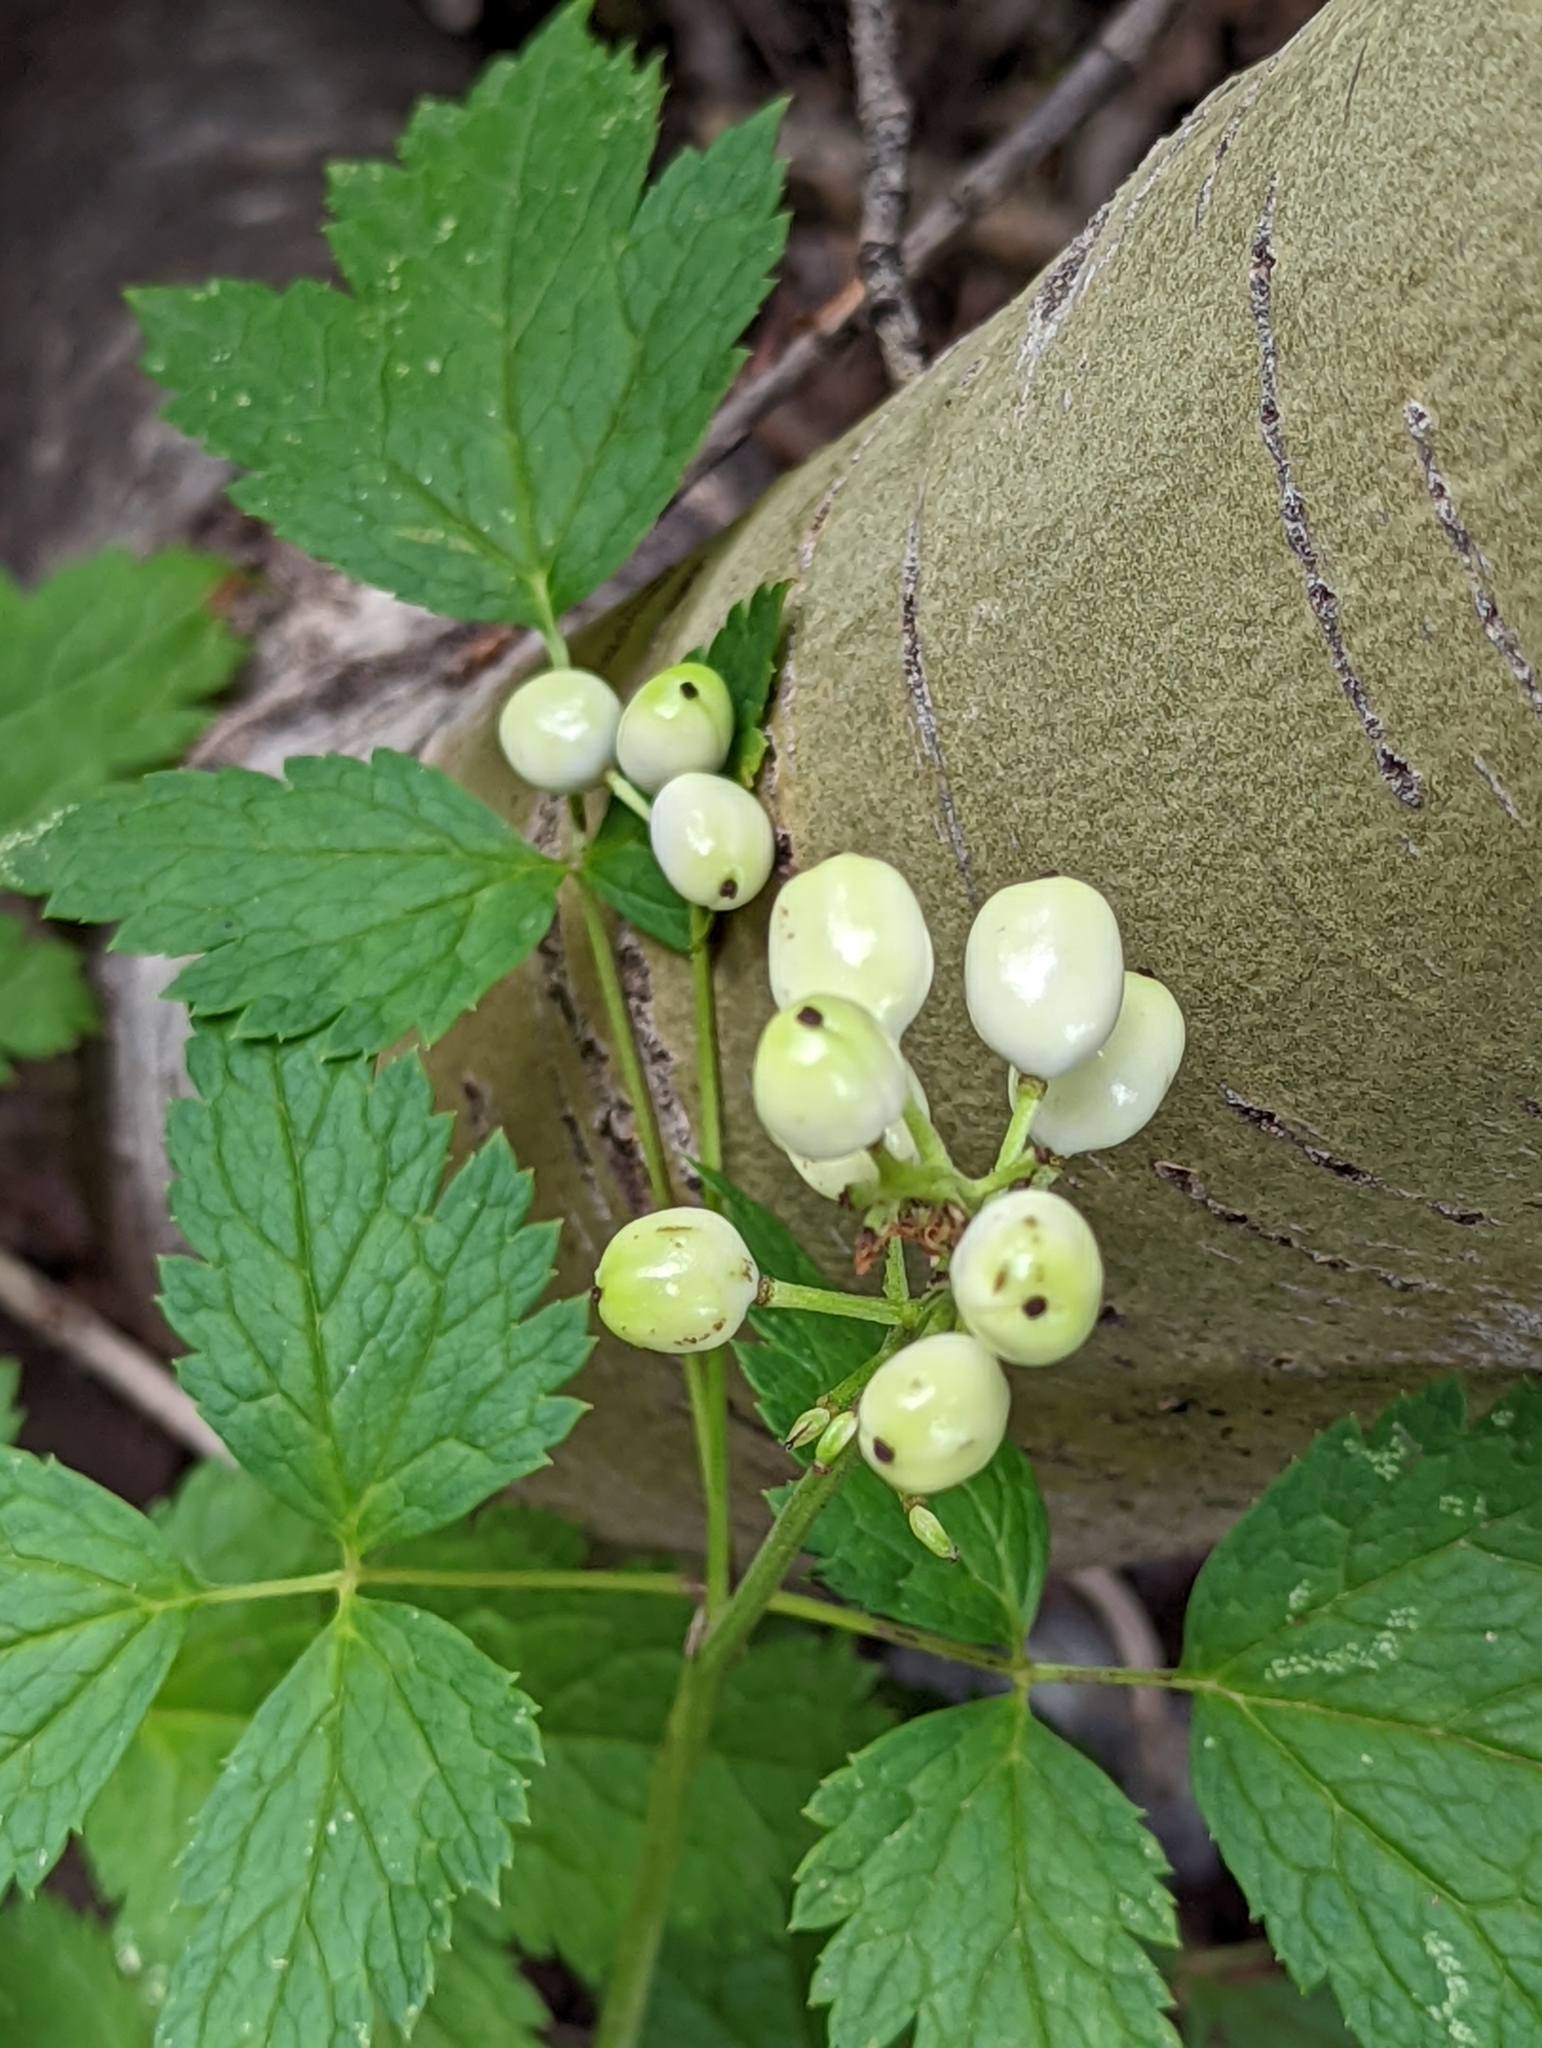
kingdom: Plantae
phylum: Tracheophyta
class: Magnoliopsida
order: Ranunculales
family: Ranunculaceae
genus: Actaea
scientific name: Actaea rubra
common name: Red baneberry
